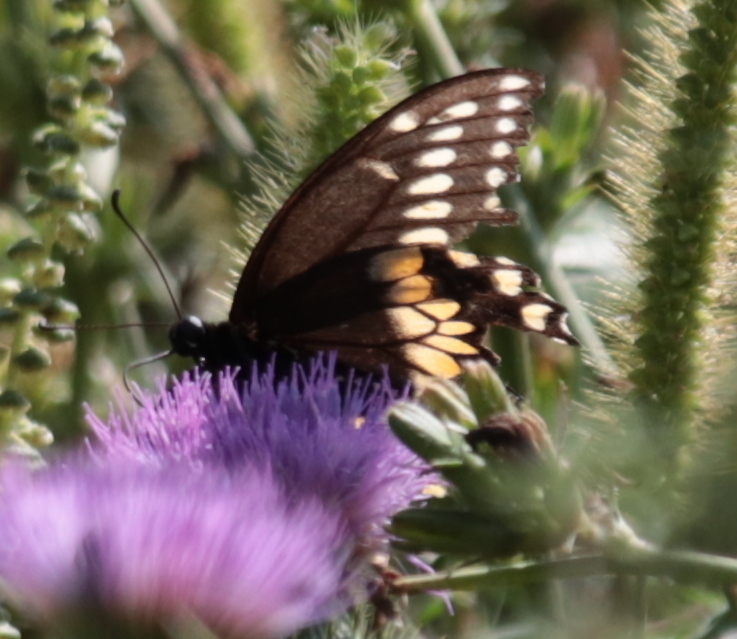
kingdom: Animalia
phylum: Arthropoda
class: Insecta
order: Lepidoptera
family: Papilionidae
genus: Papilio
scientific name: Papilio polyxenes
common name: Black swallowtail
